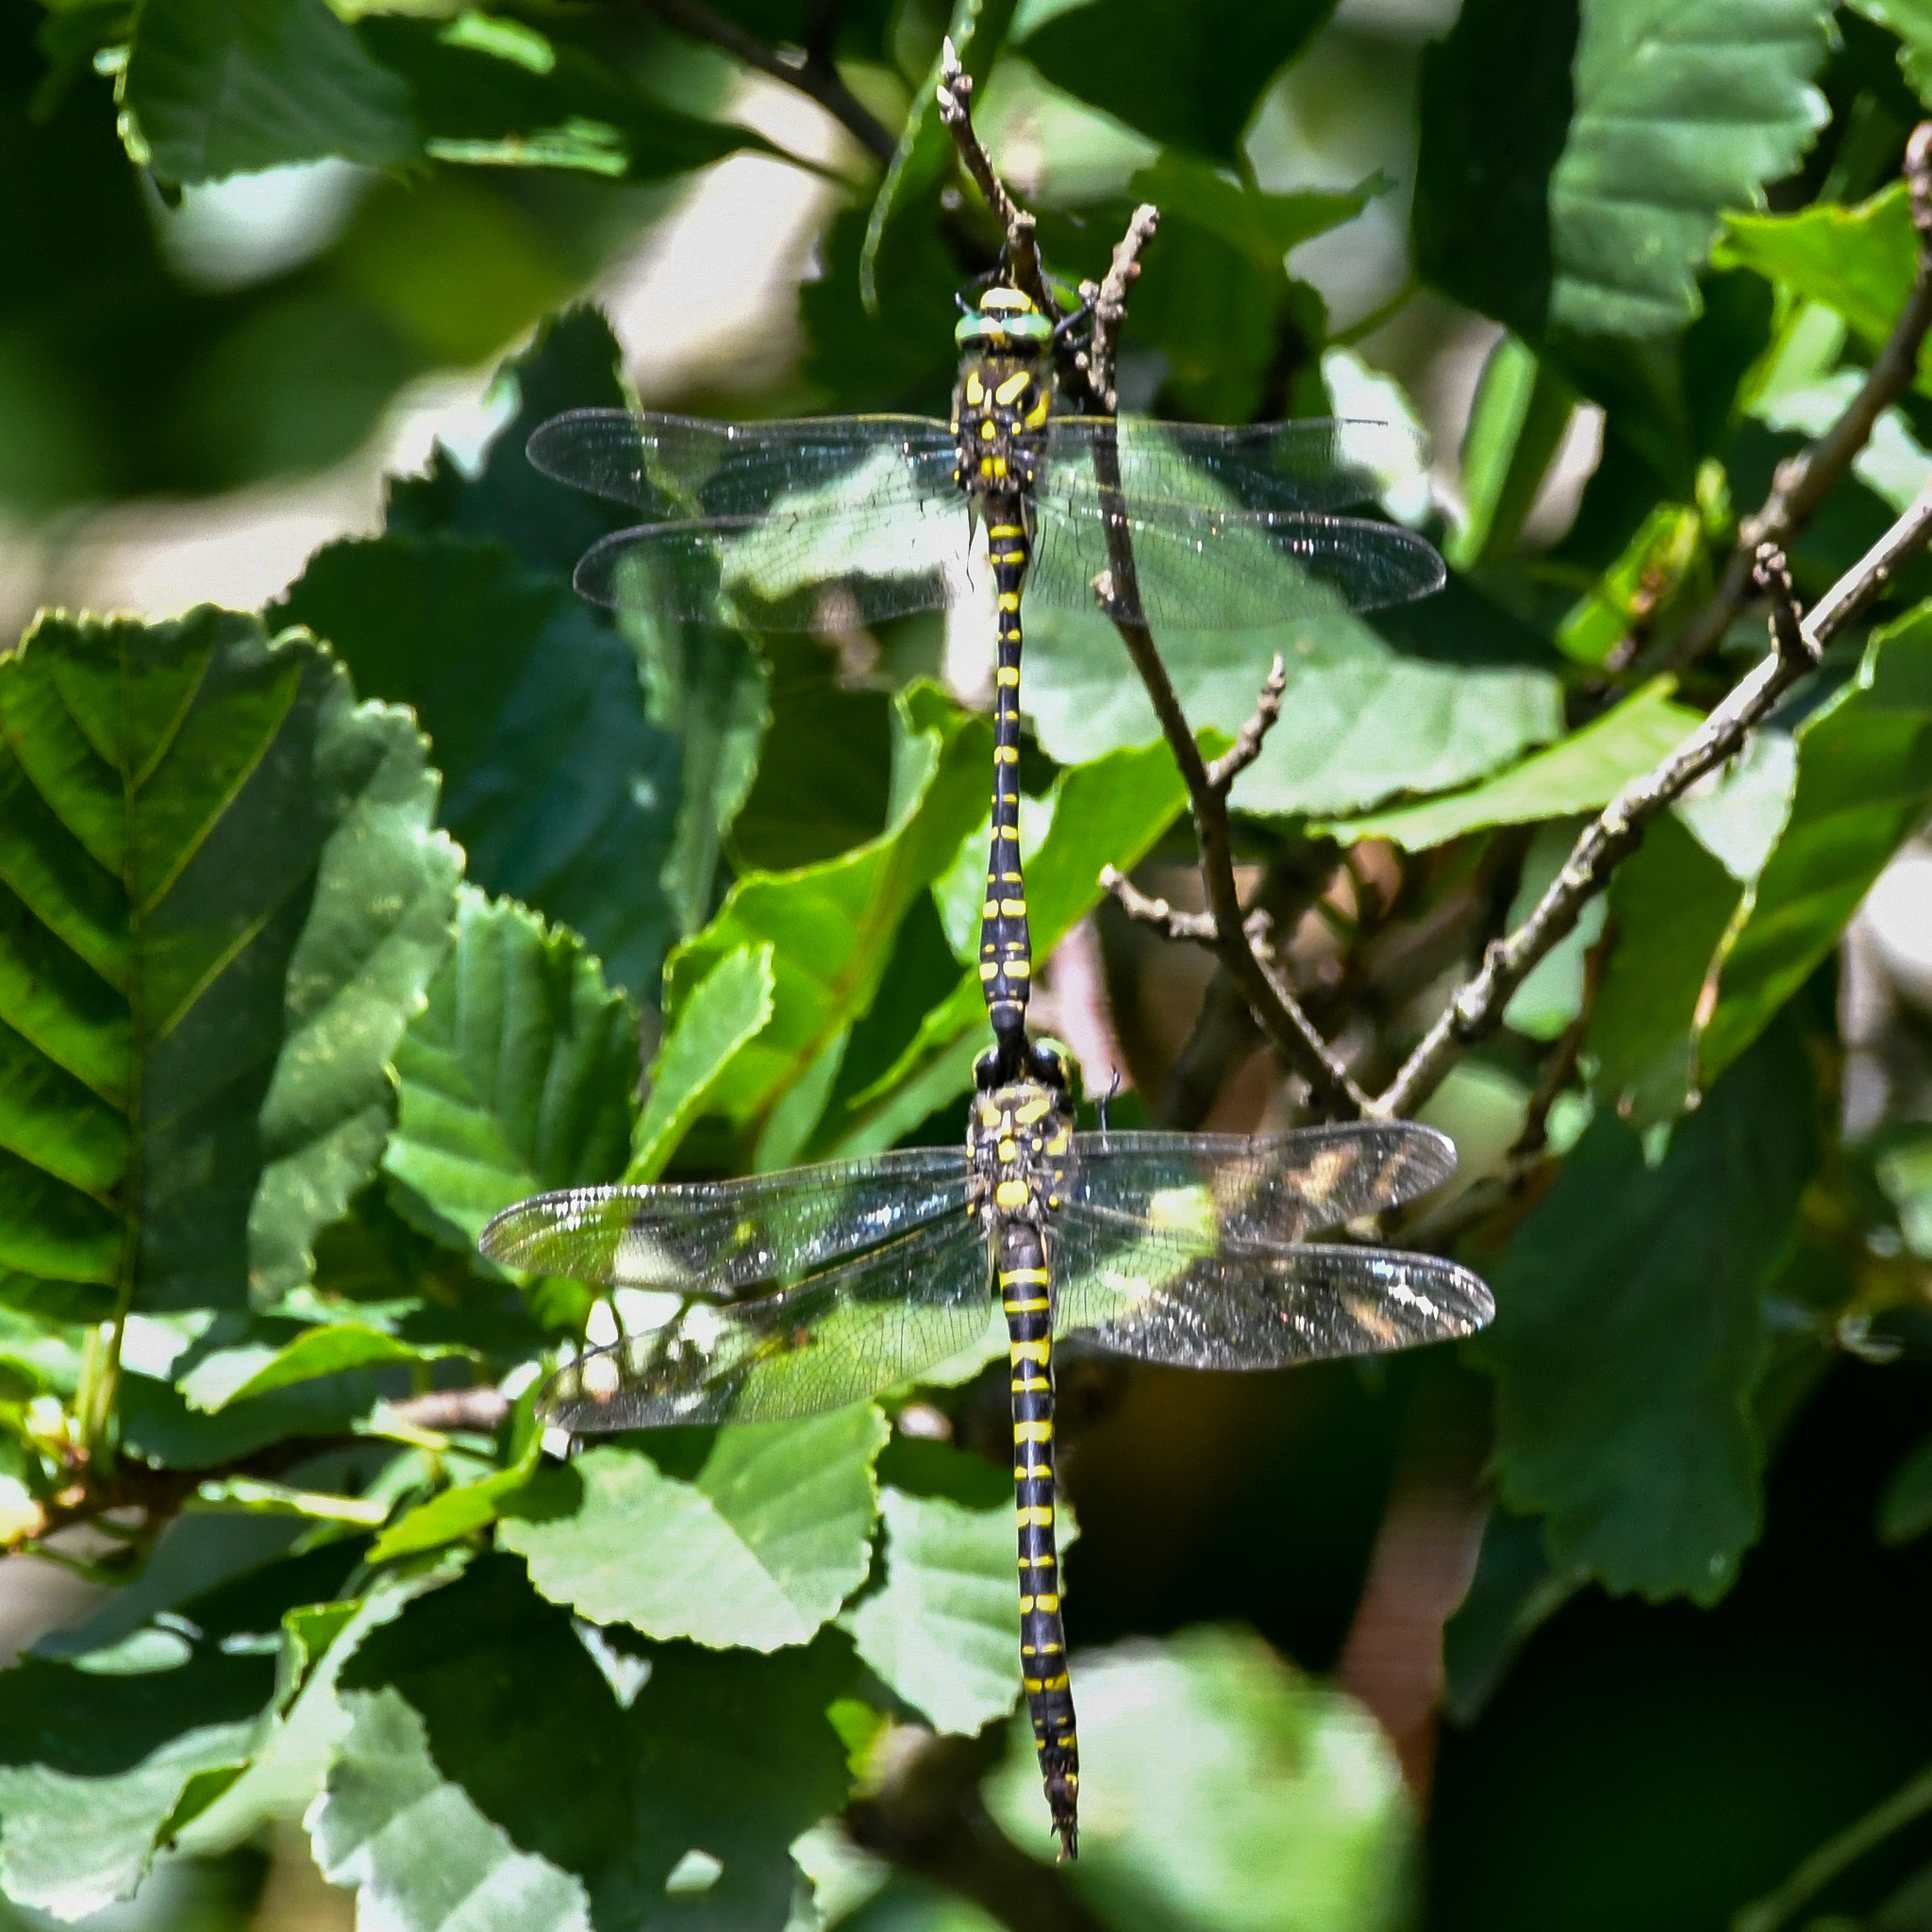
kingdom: Animalia
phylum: Arthropoda
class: Insecta
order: Odonata
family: Cordulegastridae
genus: Cordulegaster
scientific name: Cordulegaster boltonii
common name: Golden-ringed dragonfly
